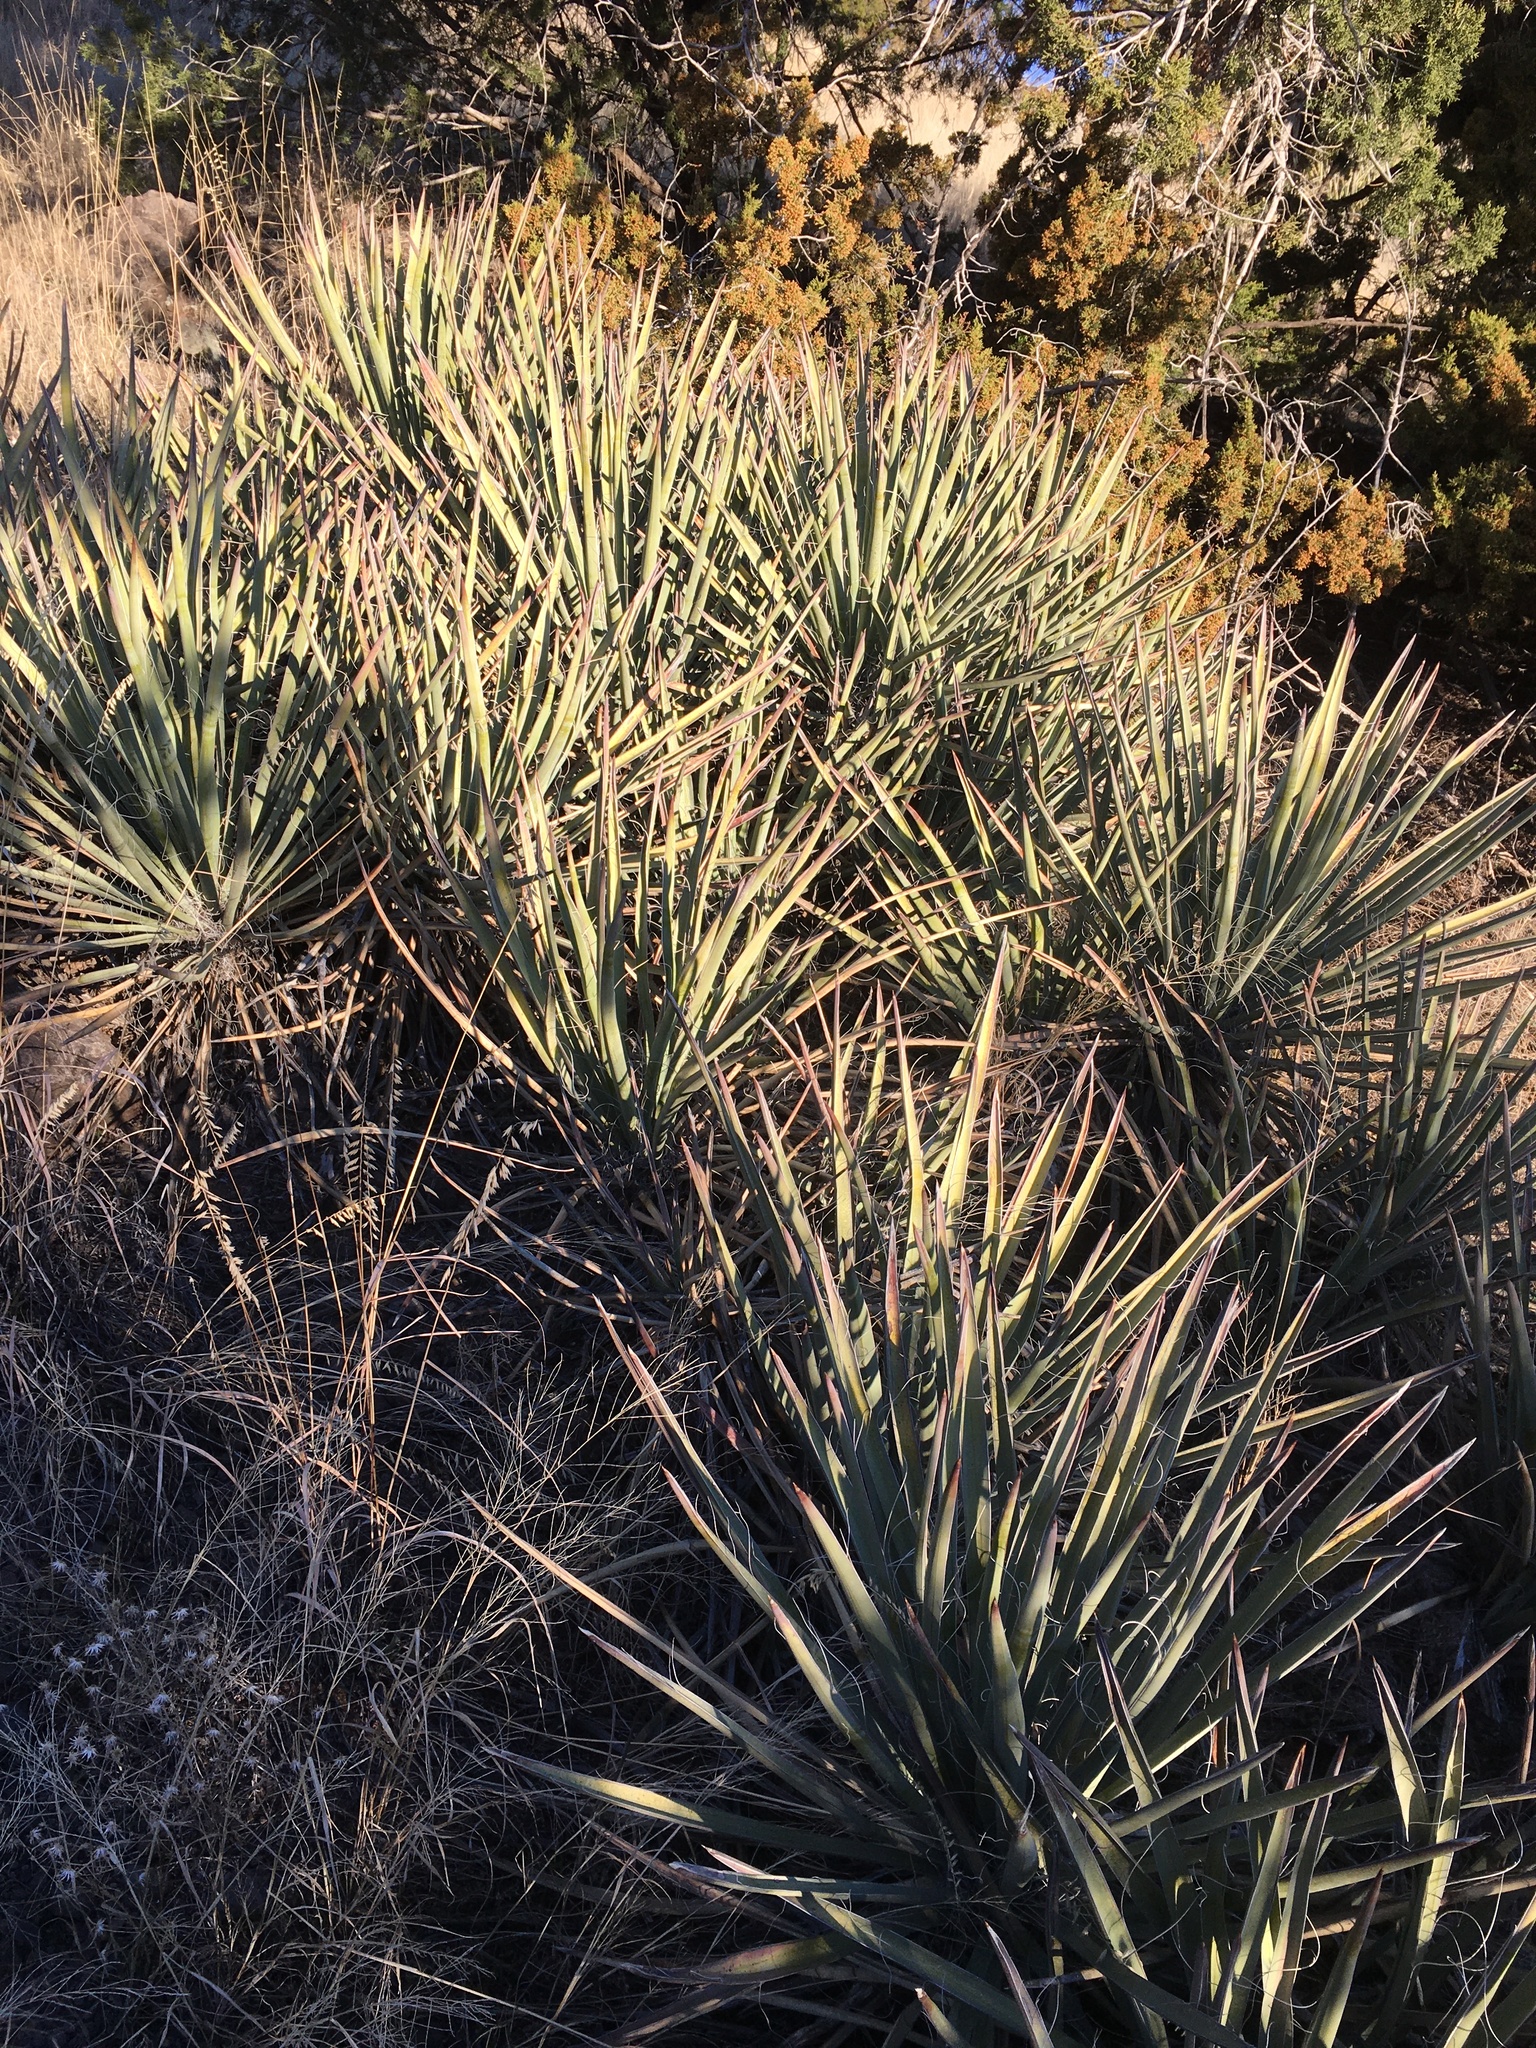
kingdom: Plantae
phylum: Tracheophyta
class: Liliopsida
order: Asparagales
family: Asparagaceae
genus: Yucca
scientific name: Yucca baccata
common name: Banana yucca
